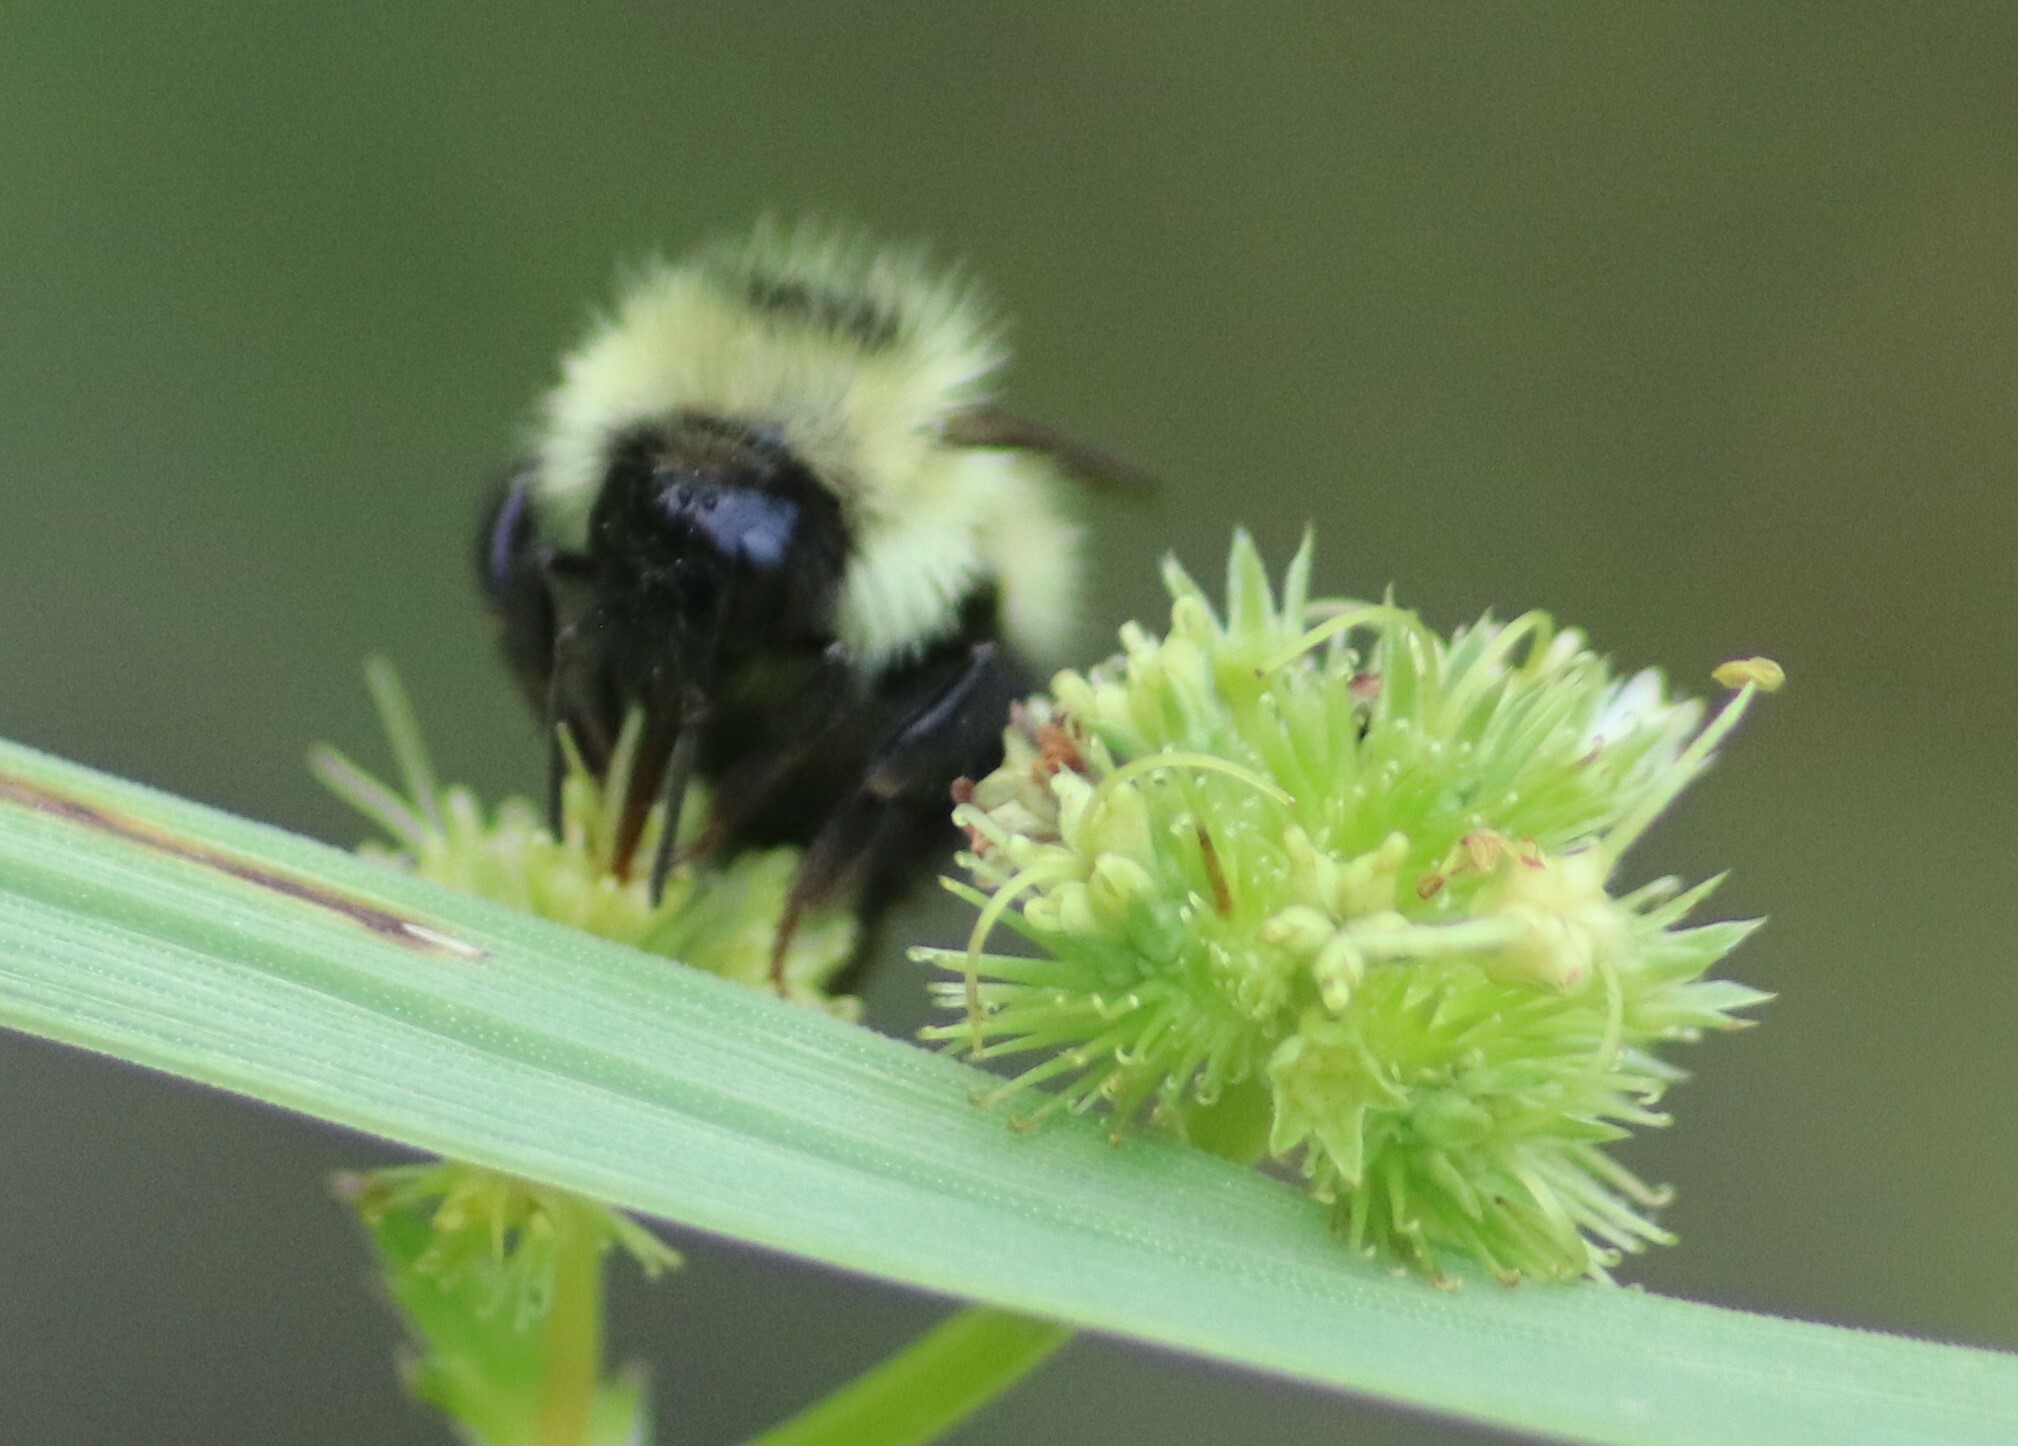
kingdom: Animalia
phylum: Arthropoda
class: Insecta
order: Hymenoptera
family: Apidae
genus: Bombus
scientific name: Bombus vagans
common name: Half-black bumble bee
